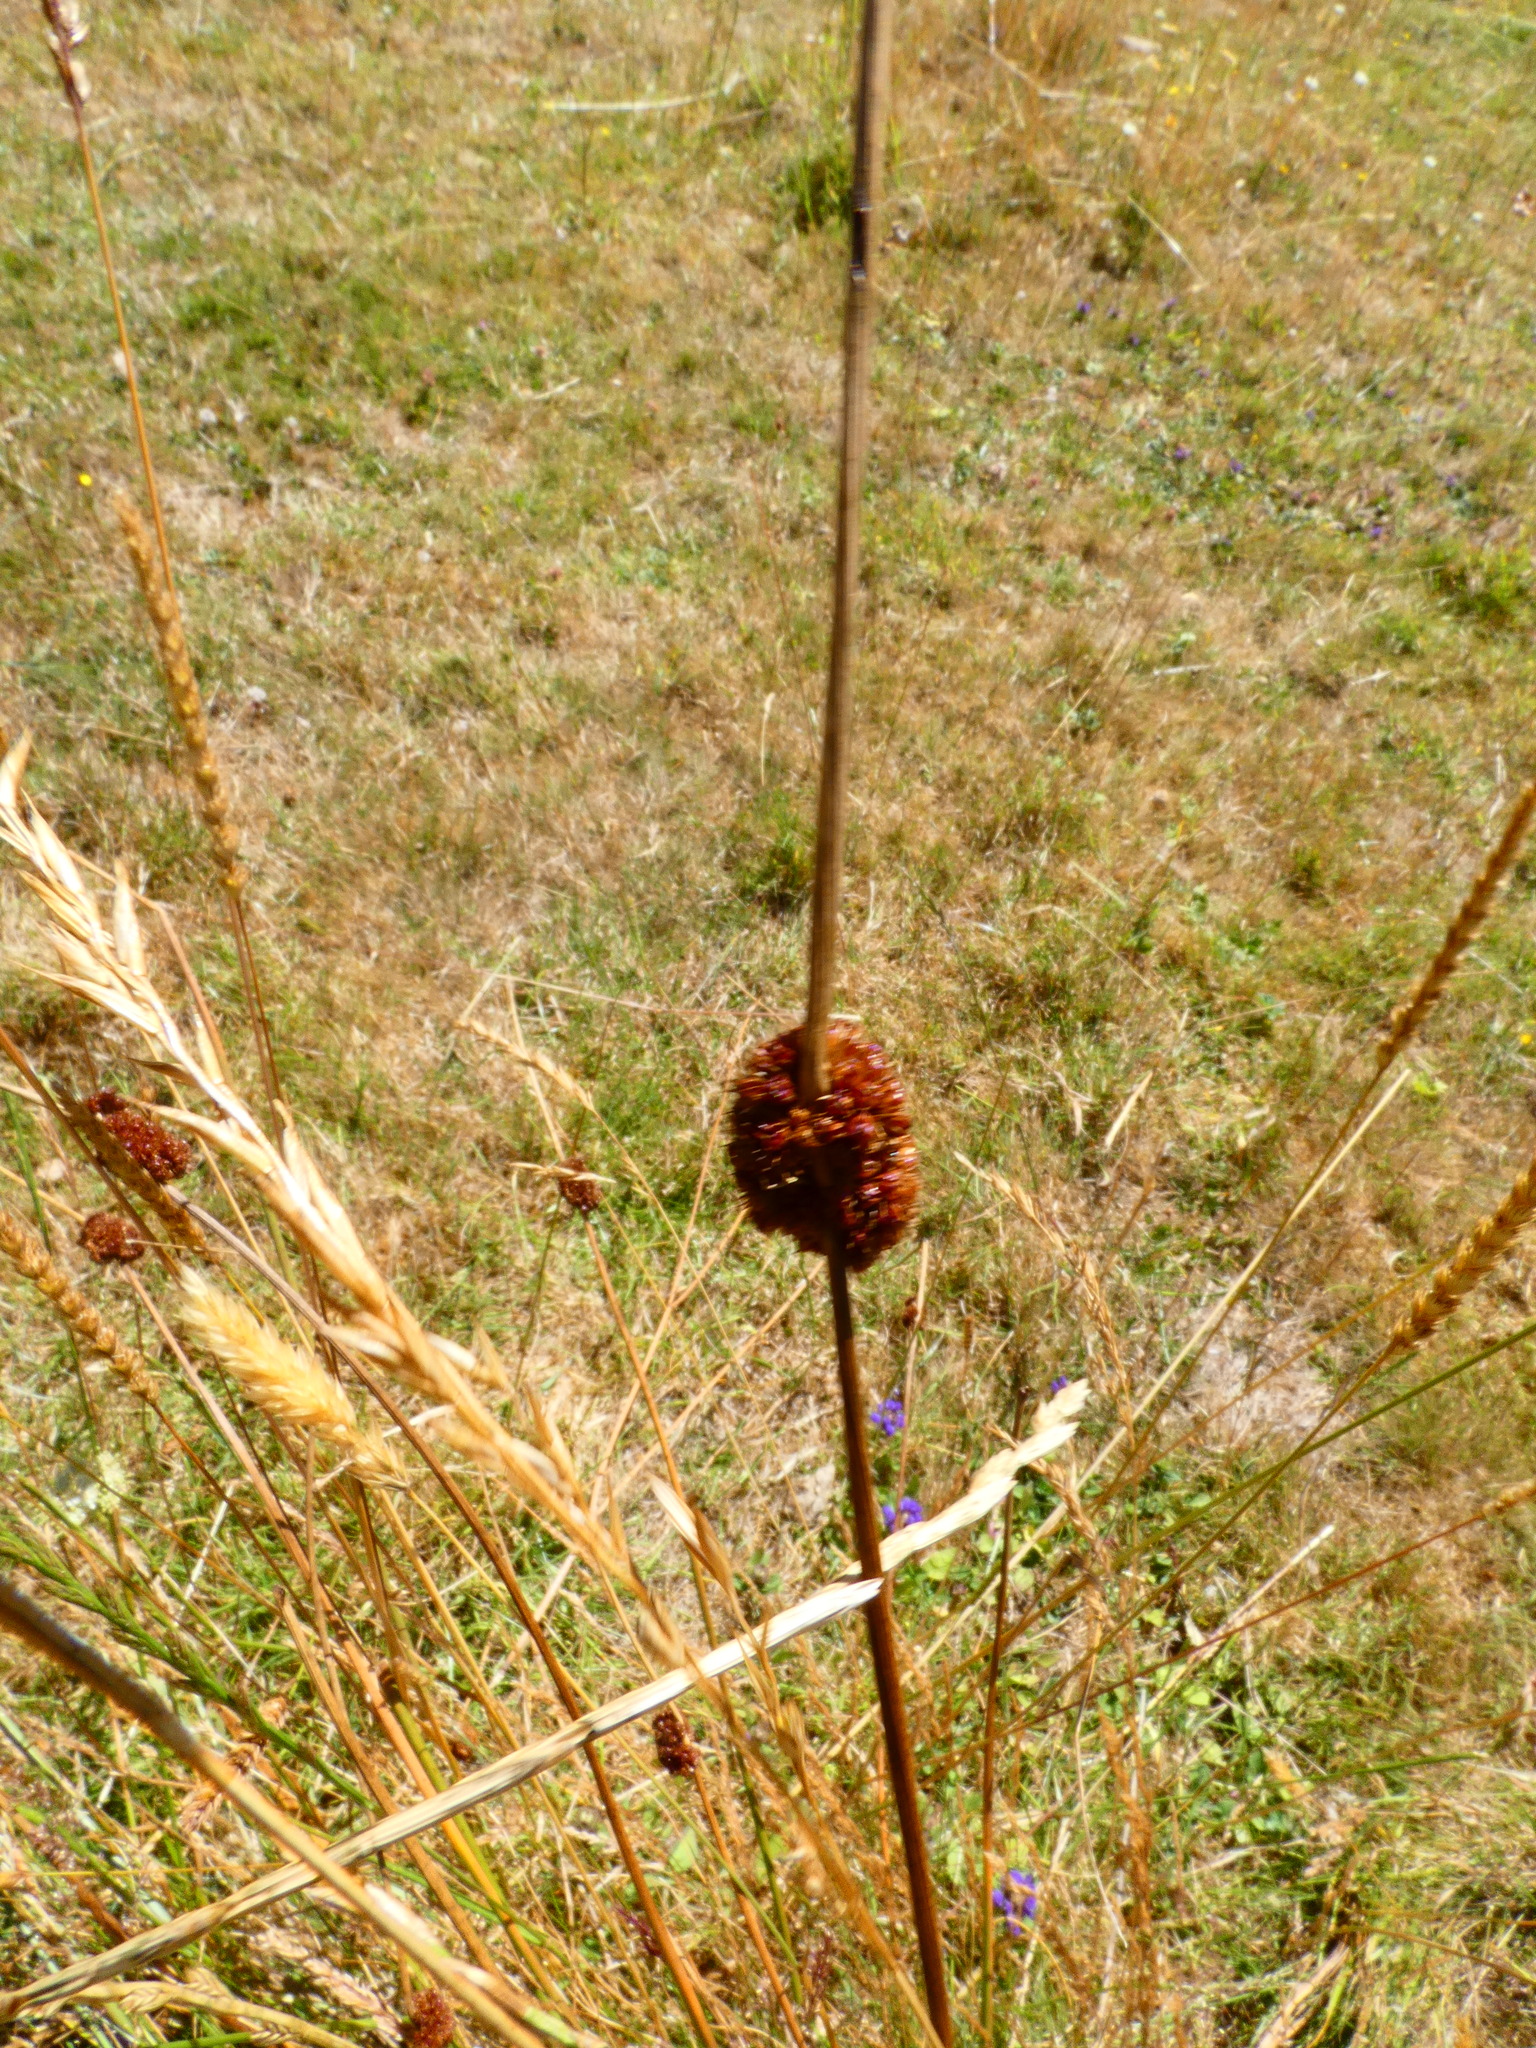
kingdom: Plantae
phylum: Tracheophyta
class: Liliopsida
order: Poales
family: Juncaceae
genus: Juncus
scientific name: Juncus conglomeratus
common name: Compact rush
